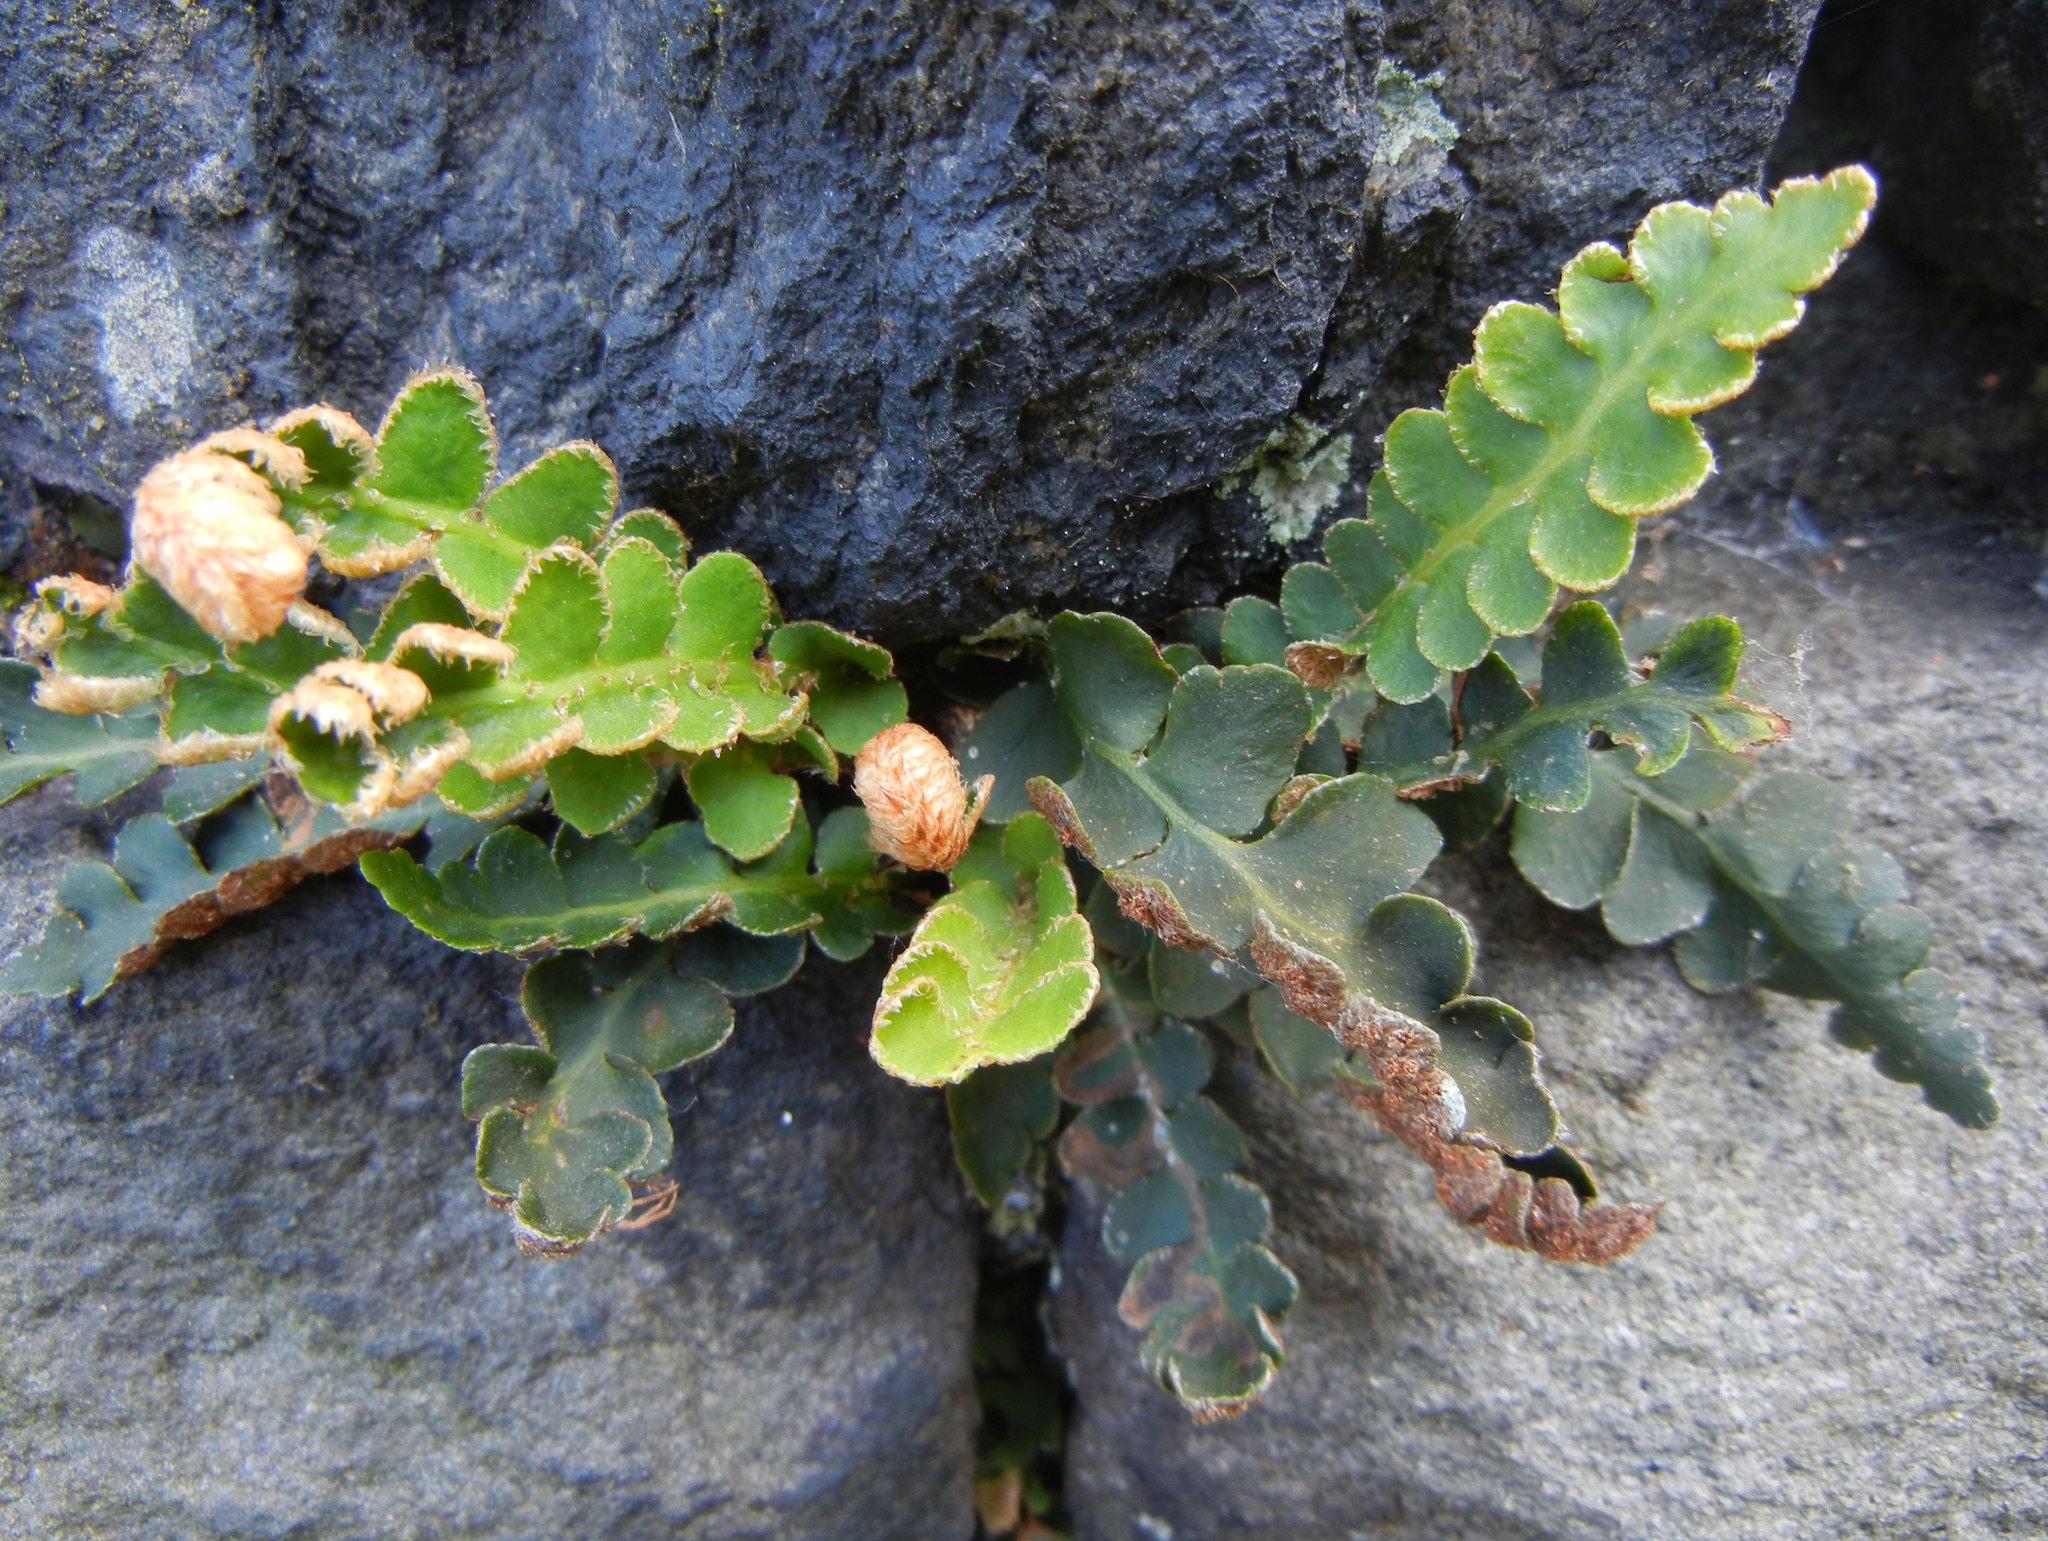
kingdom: Plantae
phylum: Tracheophyta
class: Polypodiopsida
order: Polypodiales
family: Aspleniaceae
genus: Asplenium
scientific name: Asplenium ceterach
